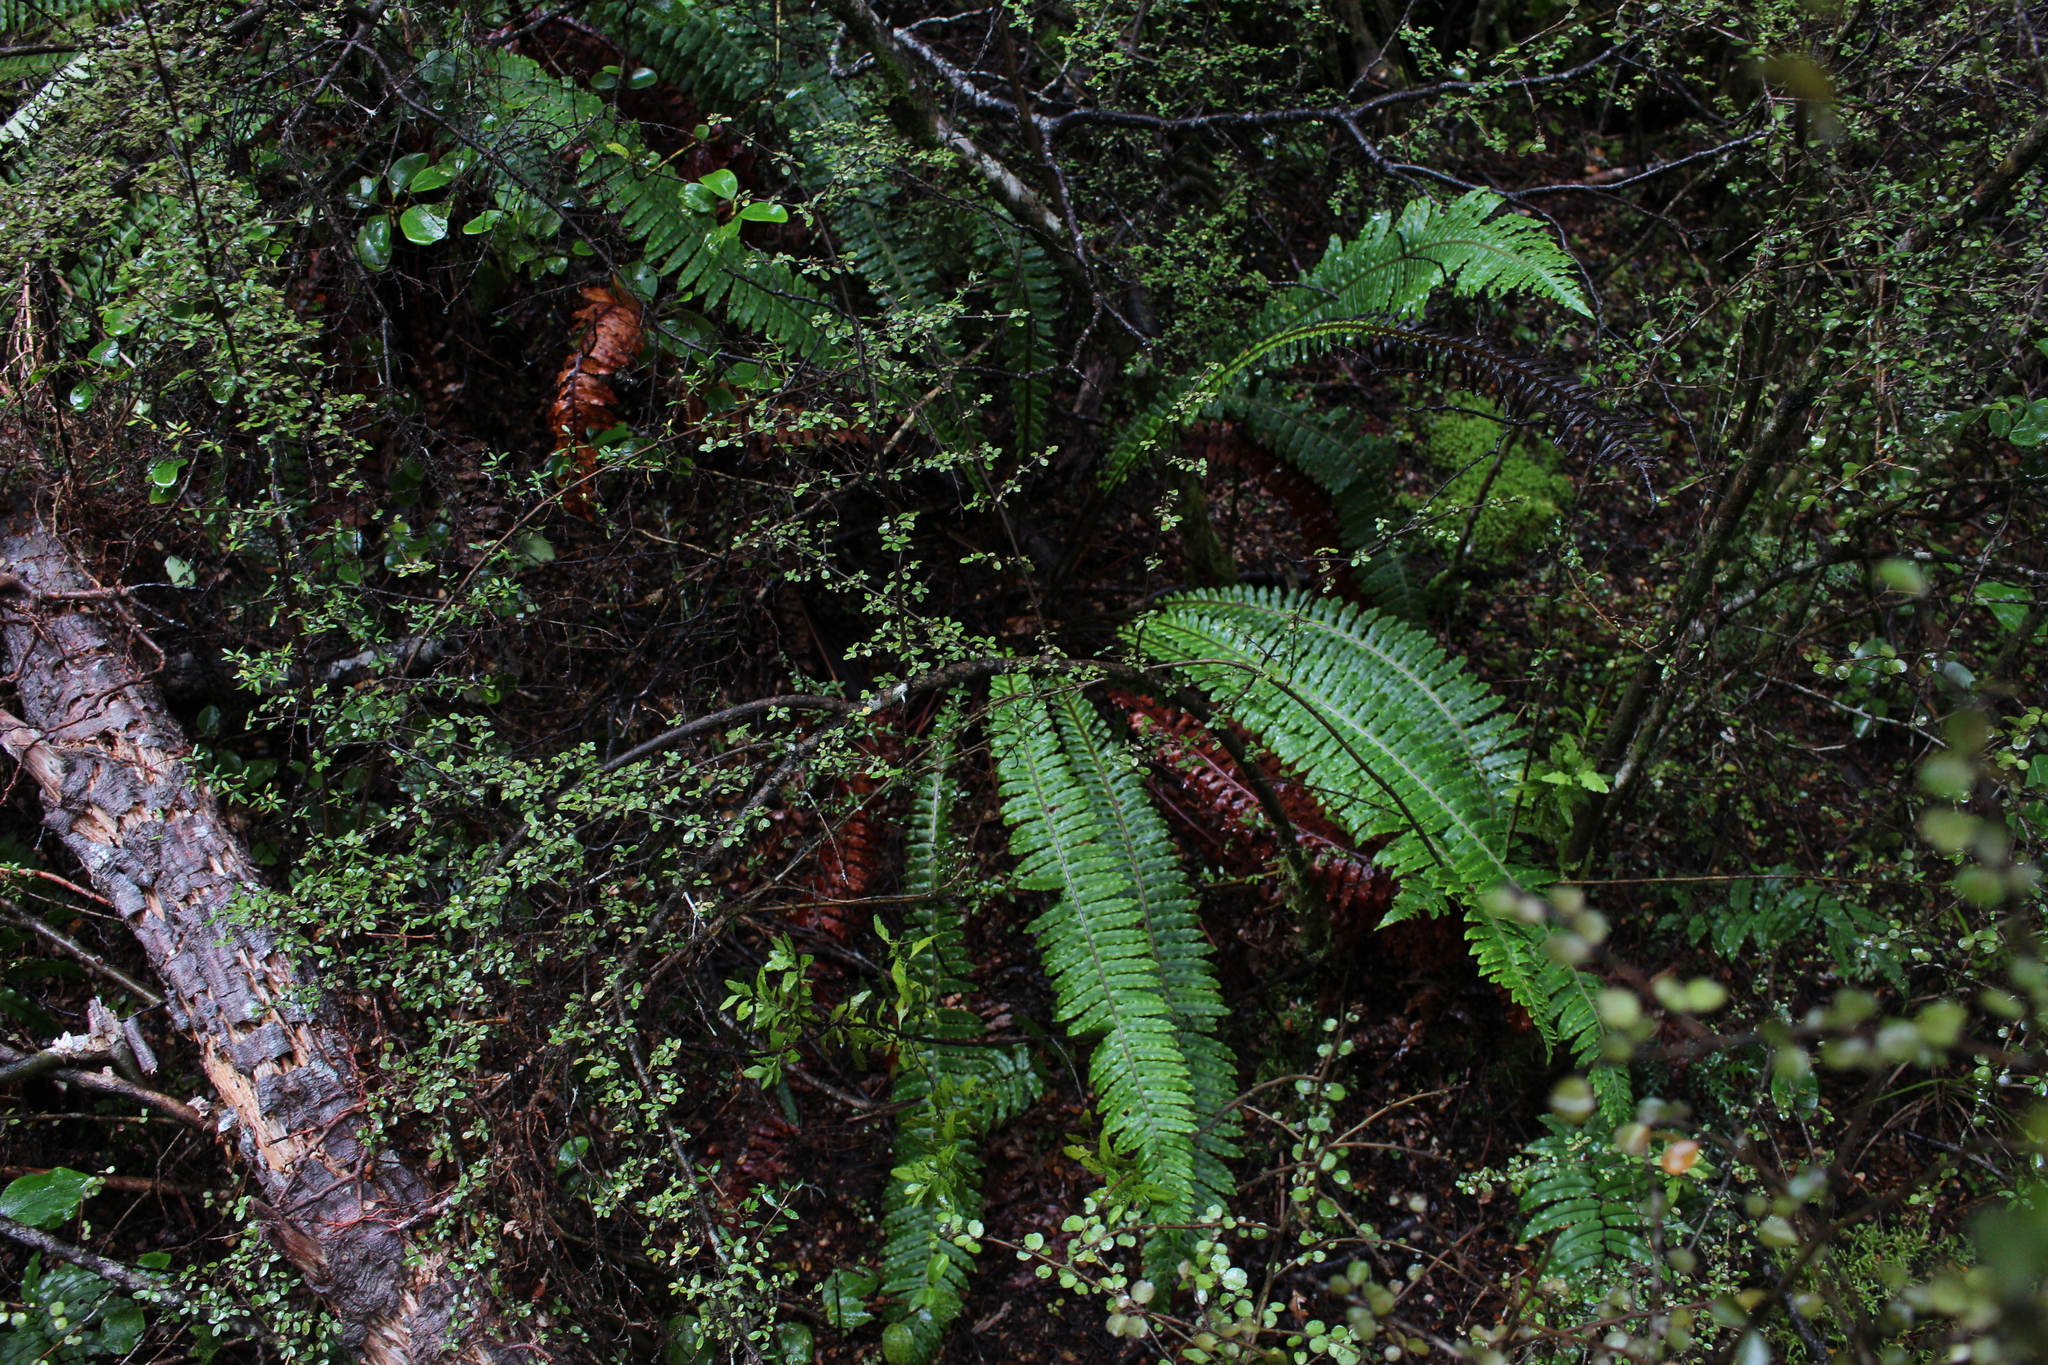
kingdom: Plantae
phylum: Tracheophyta
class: Polypodiopsida
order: Polypodiales
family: Blechnaceae
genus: Lomaria
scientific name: Lomaria discolor
